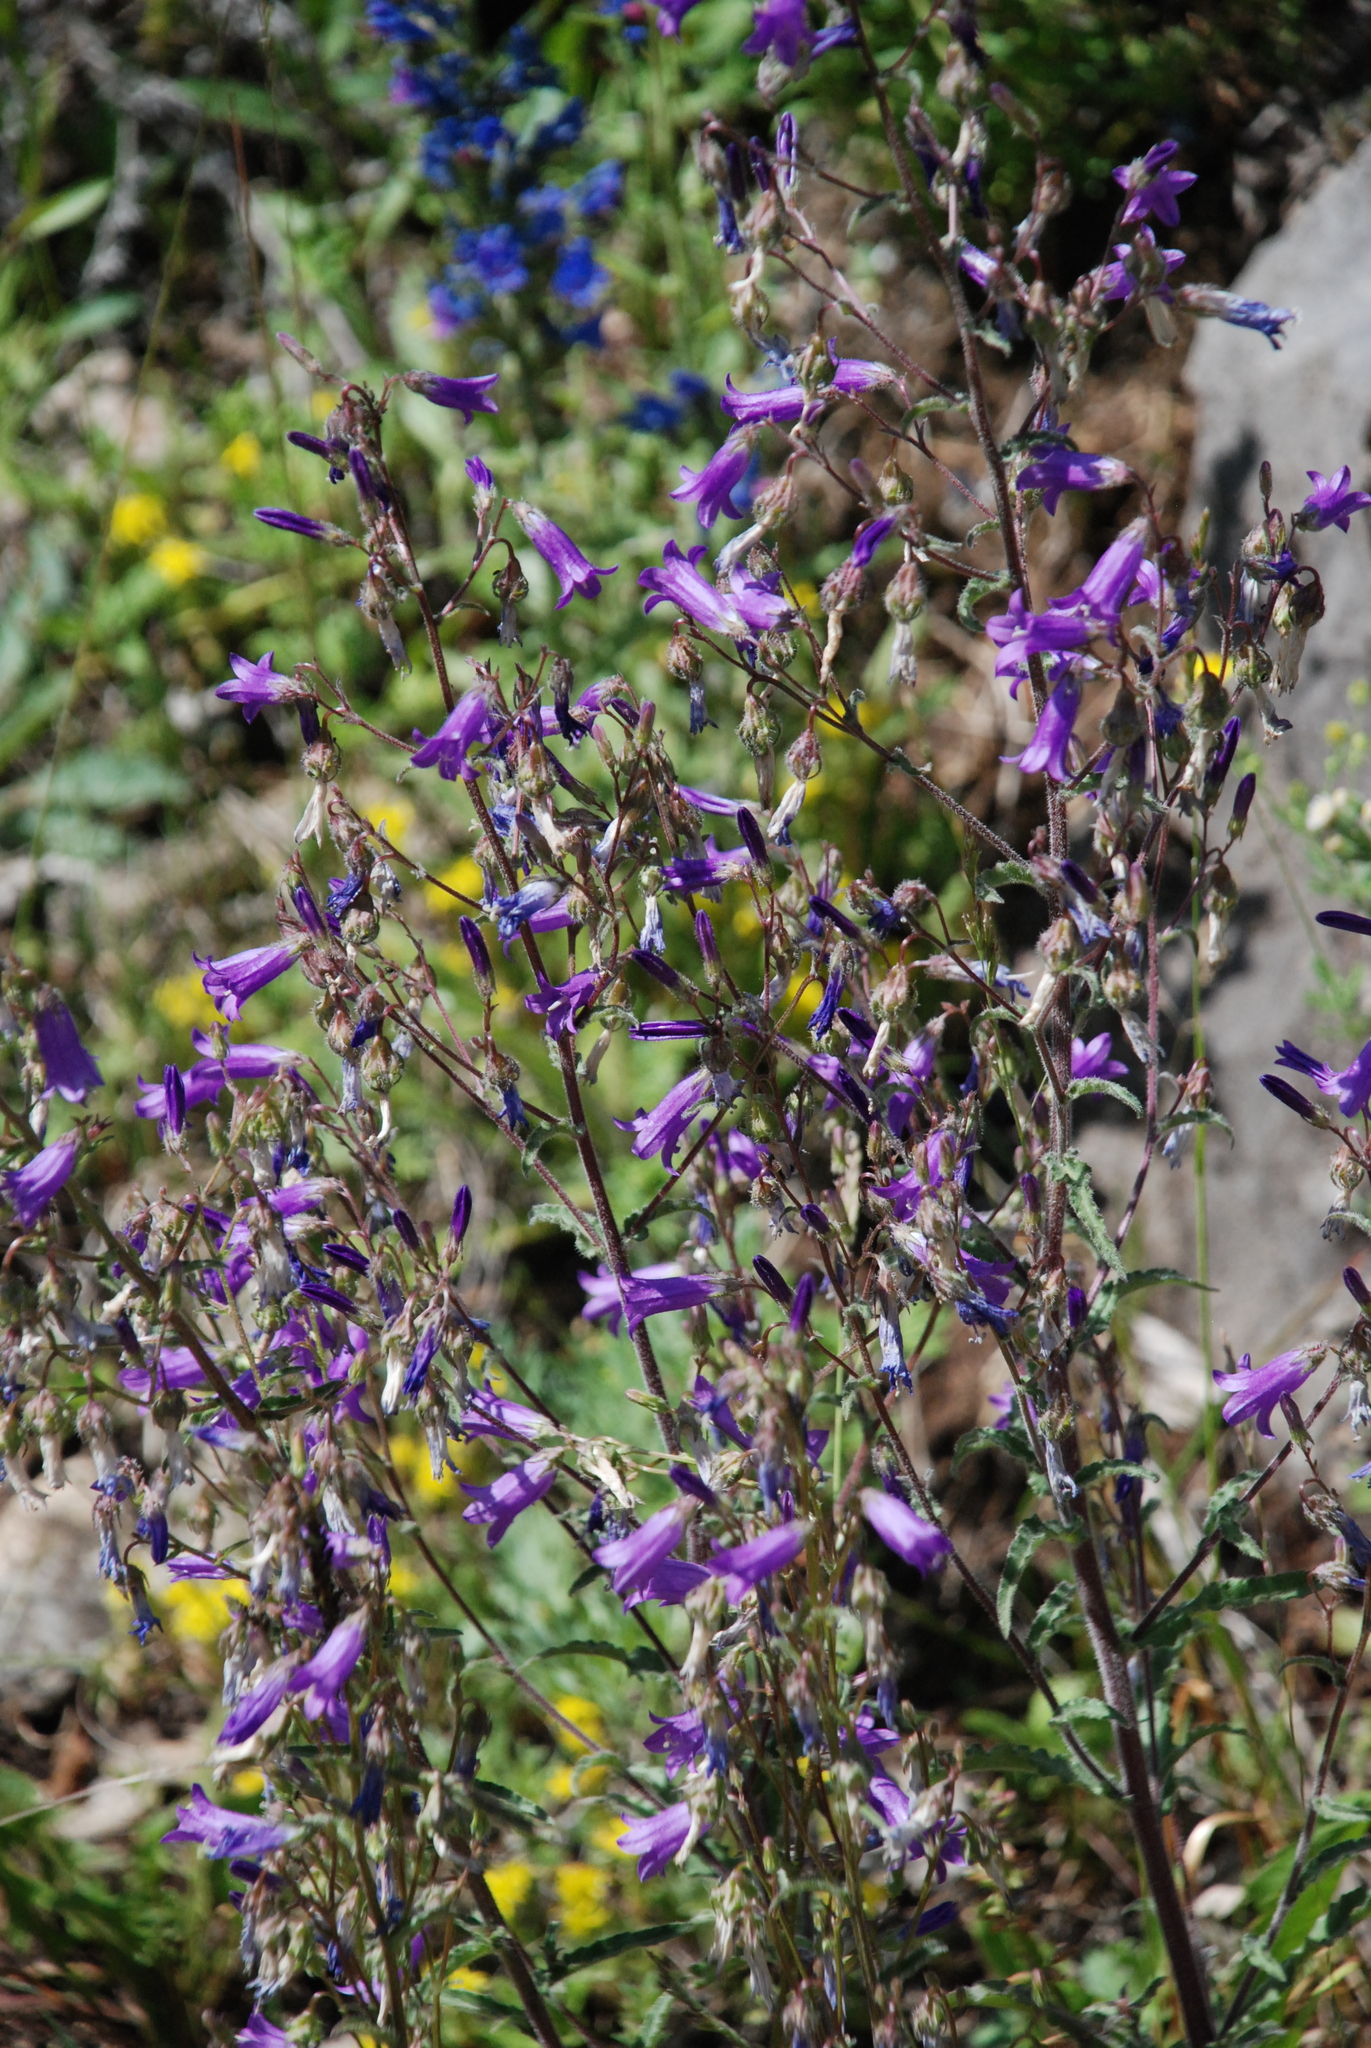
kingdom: Plantae
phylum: Tracheophyta
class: Magnoliopsida
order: Asterales
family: Campanulaceae
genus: Campanula
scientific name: Campanula sibirica
